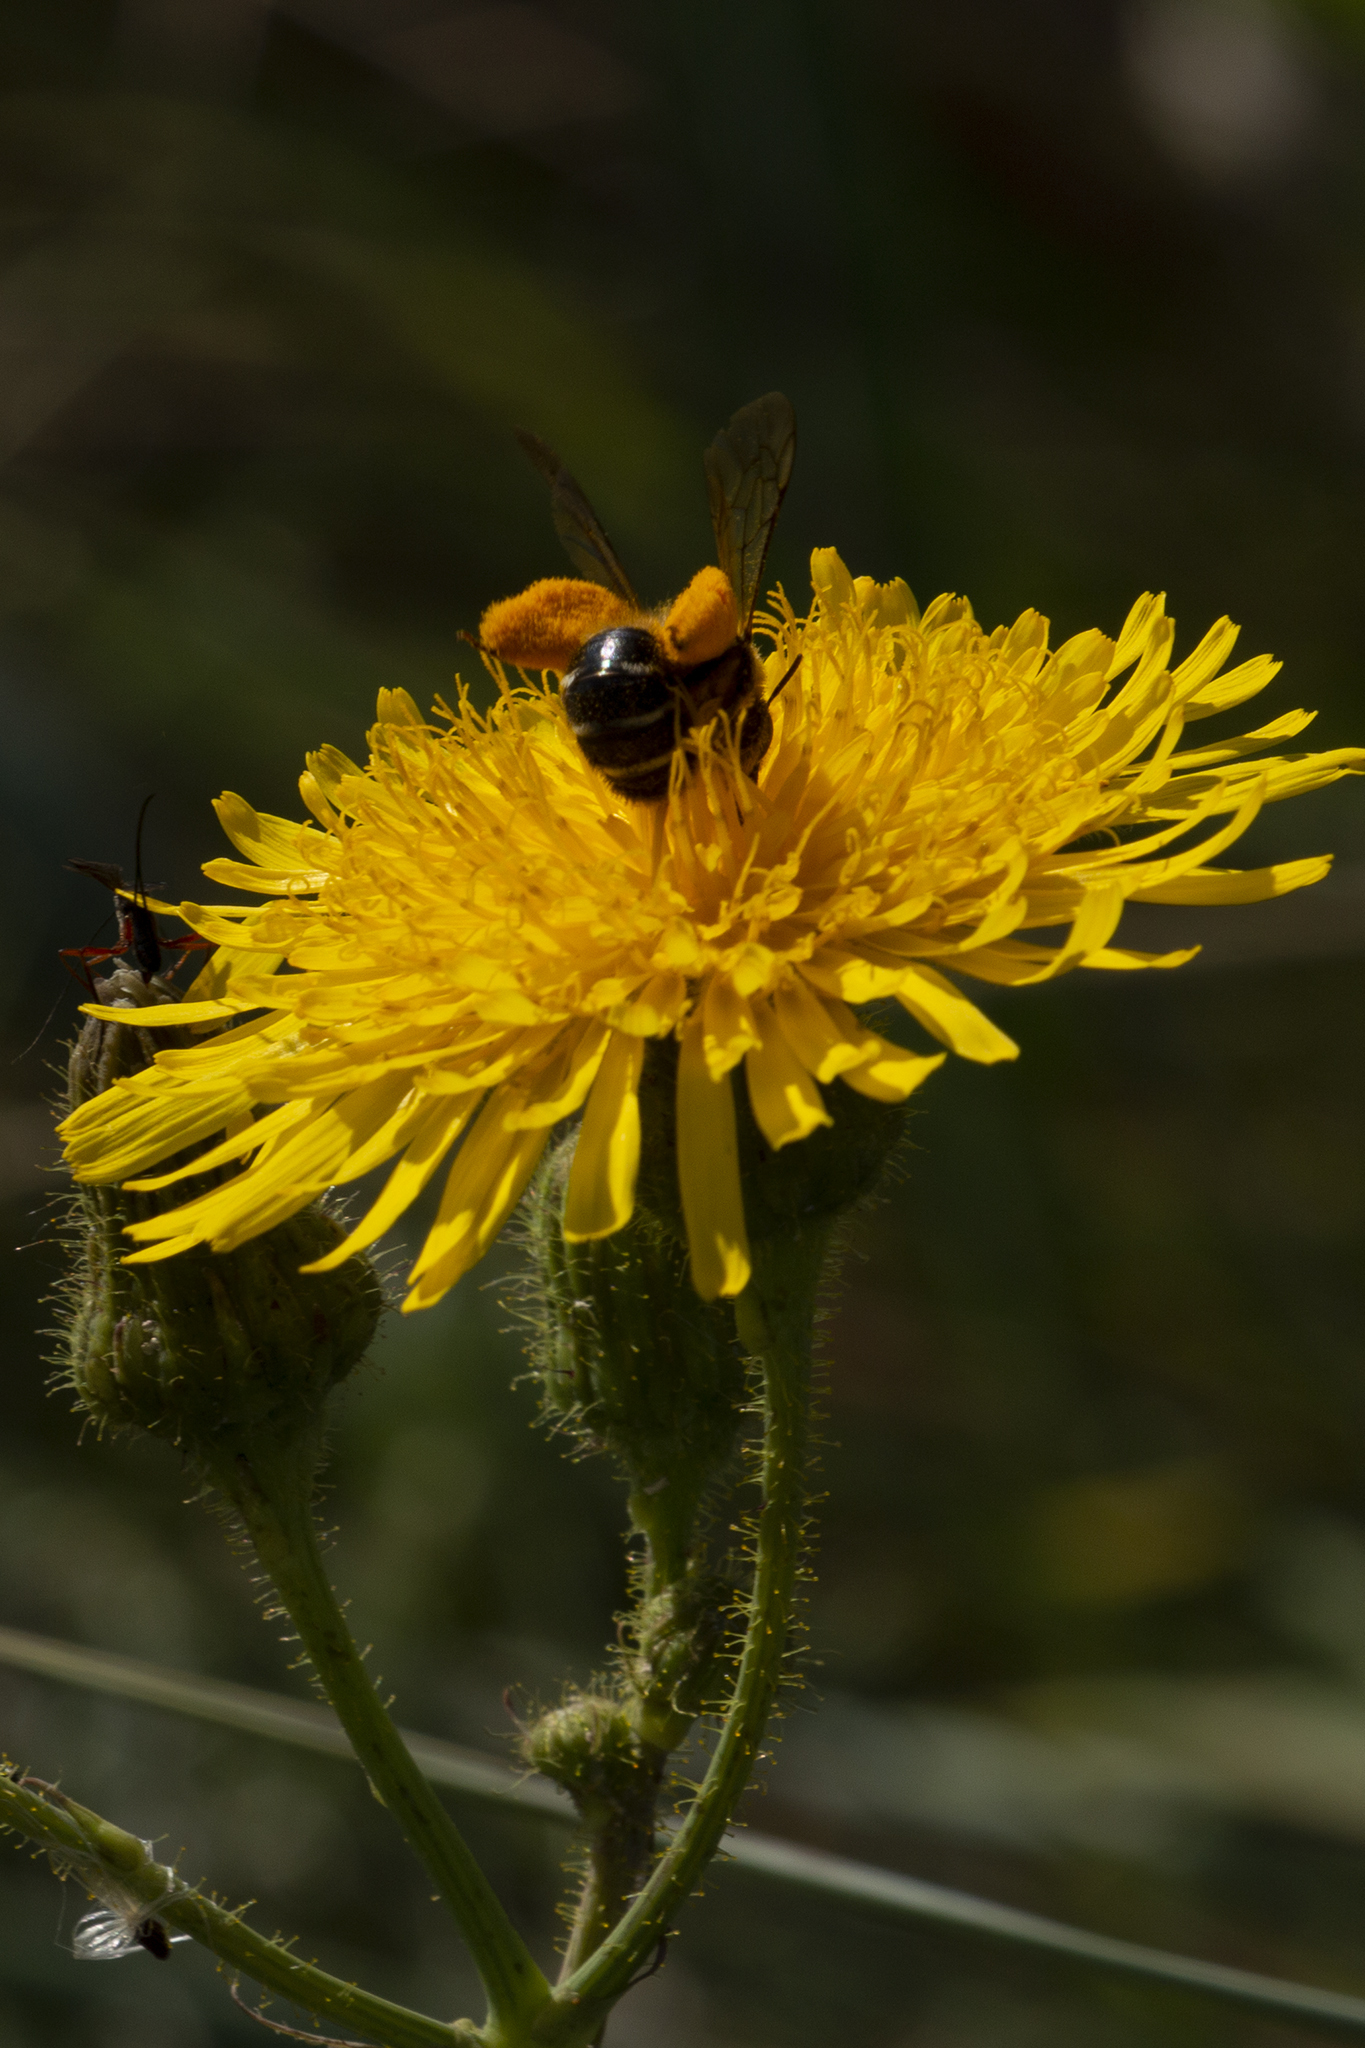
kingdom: Animalia
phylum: Arthropoda
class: Insecta
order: Hymenoptera
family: Melittidae
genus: Dasypoda
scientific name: Dasypoda hirtipes
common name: Pantaloon bee
